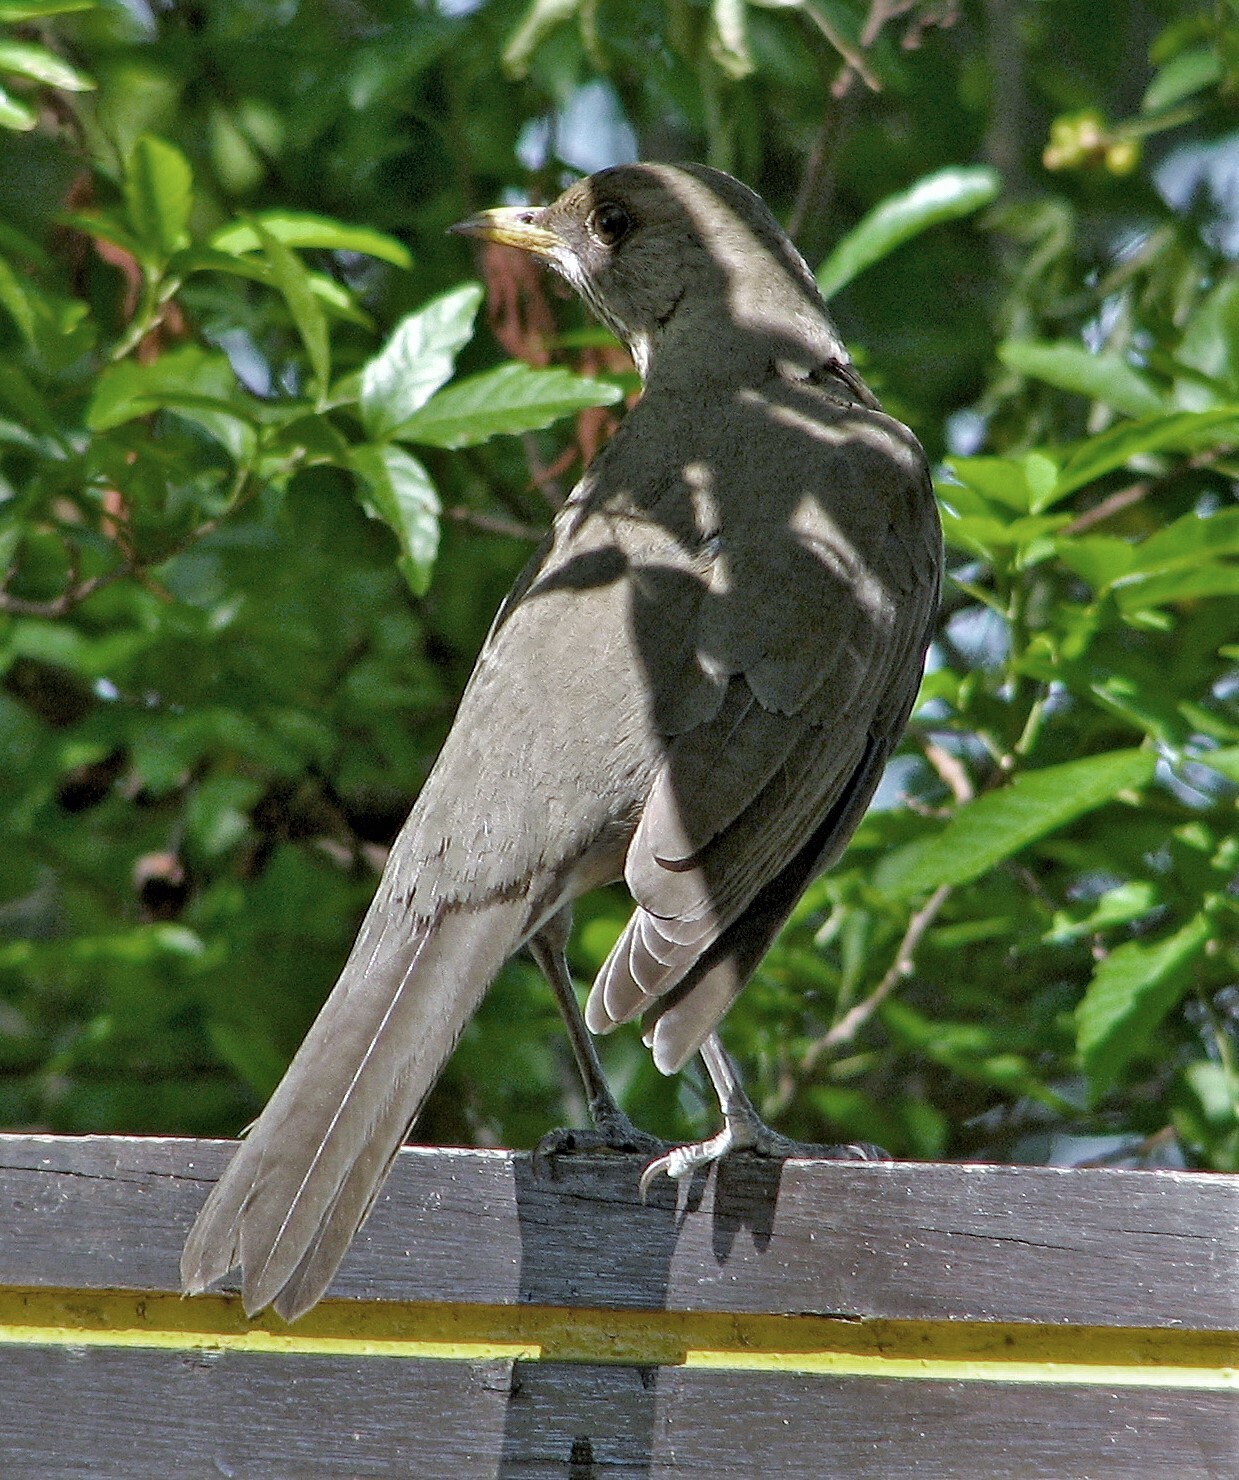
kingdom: Animalia
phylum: Chordata
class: Aves
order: Passeriformes
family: Turdidae
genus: Turdus
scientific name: Turdus amaurochalinus
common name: Creamy-bellied thrush
